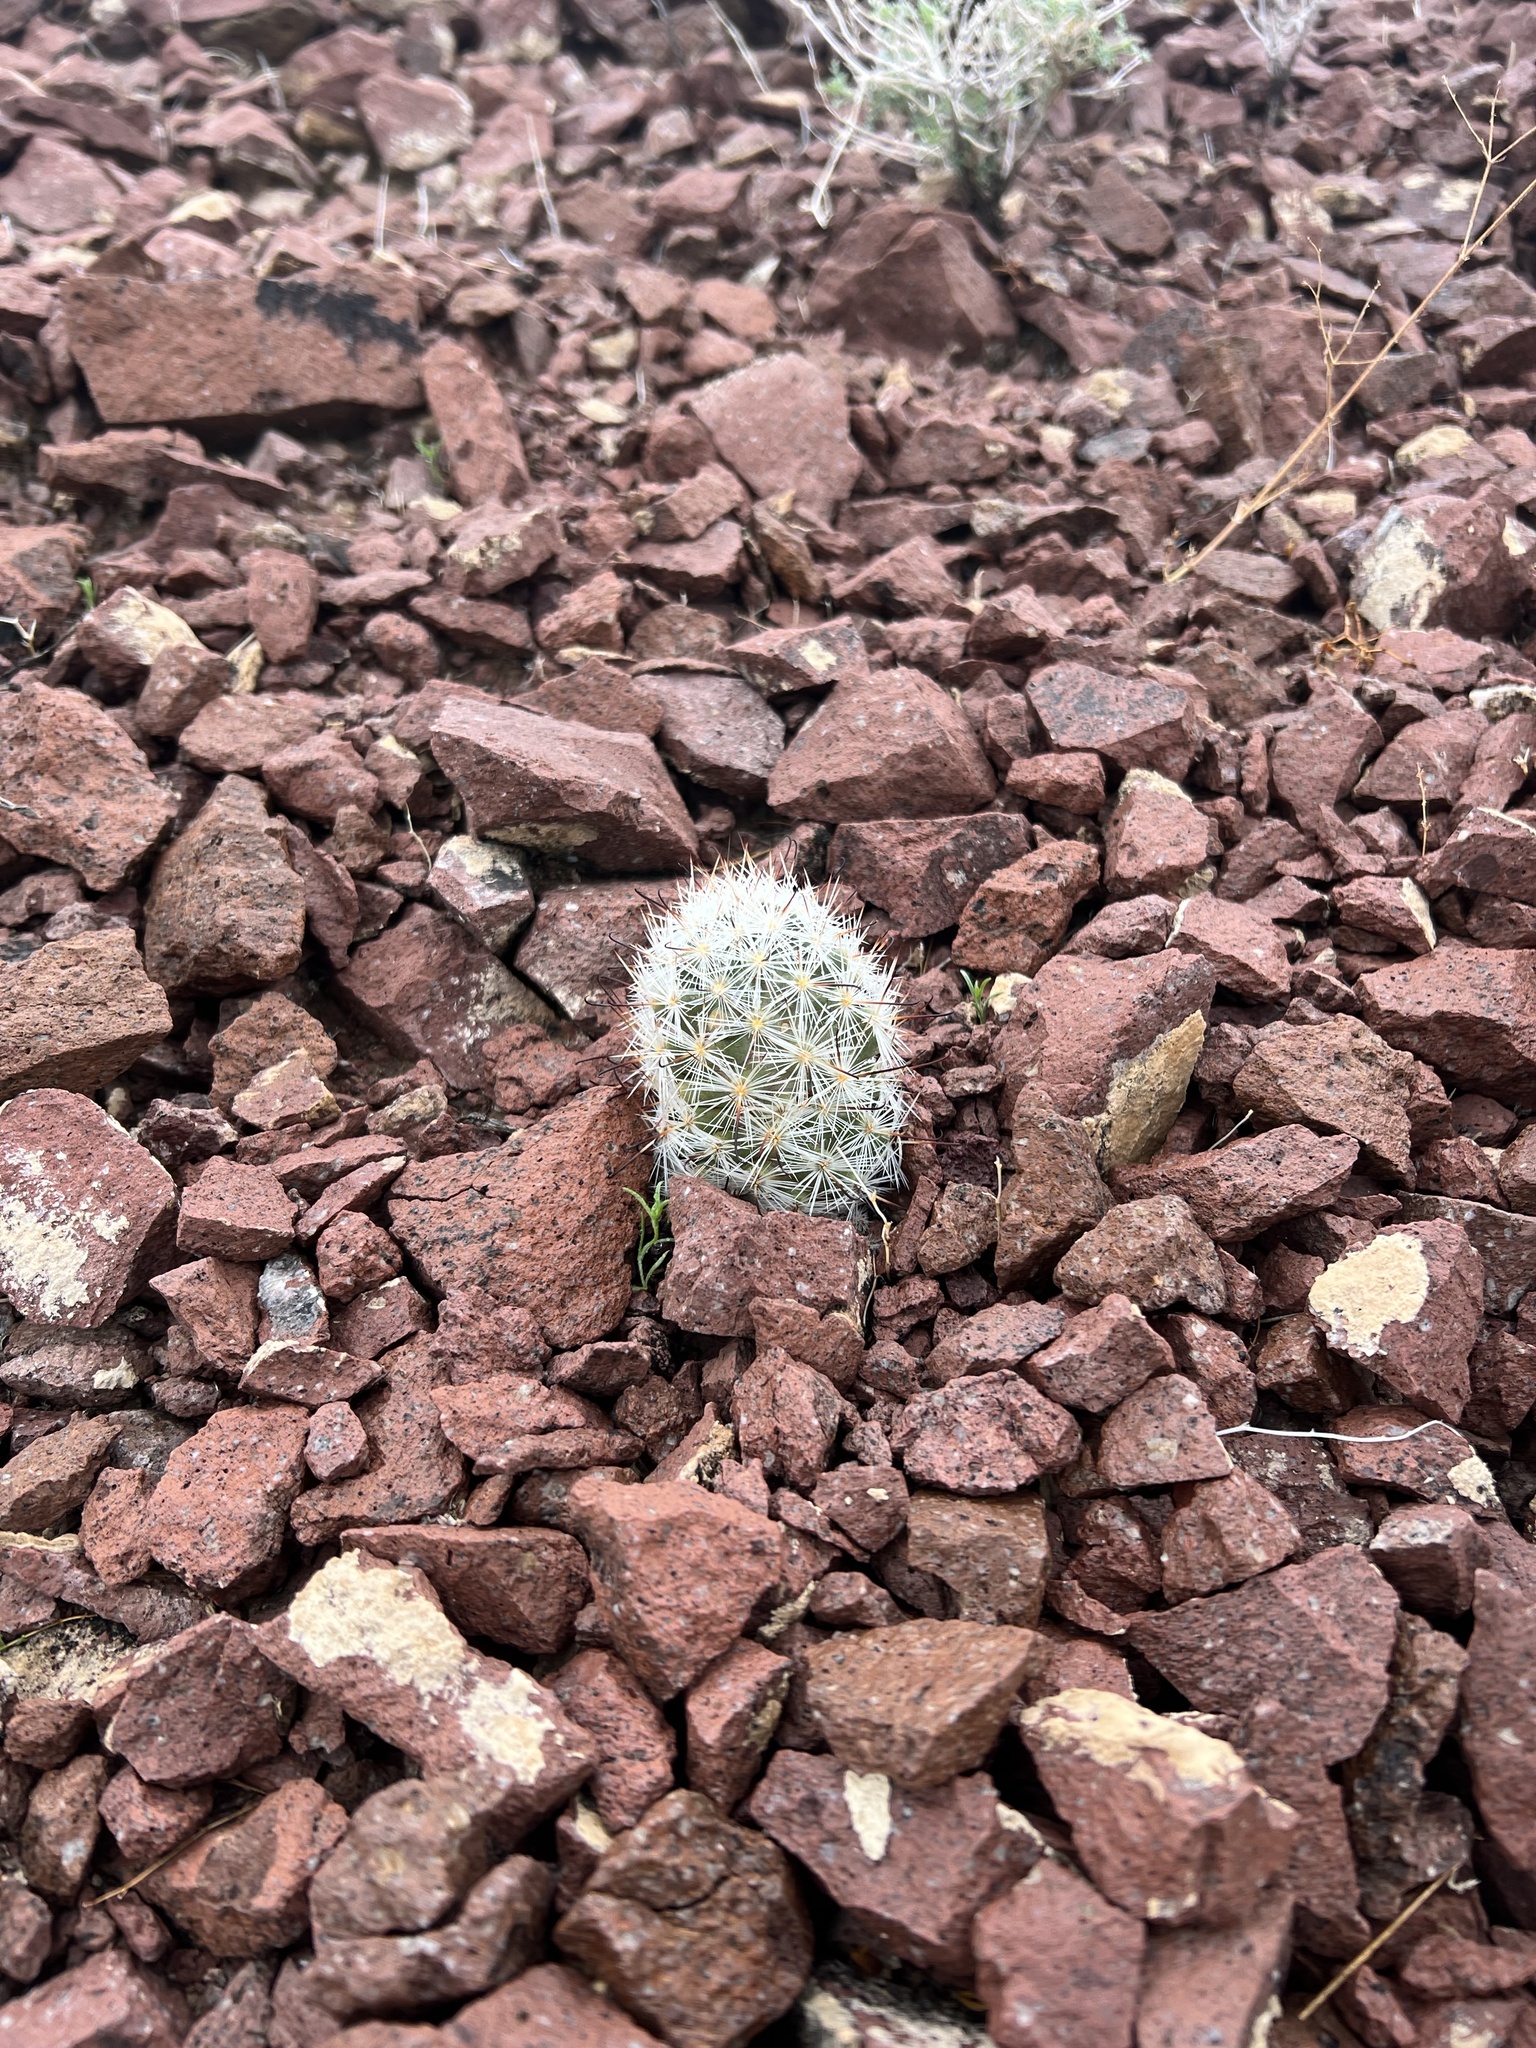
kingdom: Plantae
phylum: Tracheophyta
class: Magnoliopsida
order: Caryophyllales
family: Cactaceae
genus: Cochemiea
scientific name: Cochemiea tetrancistra
